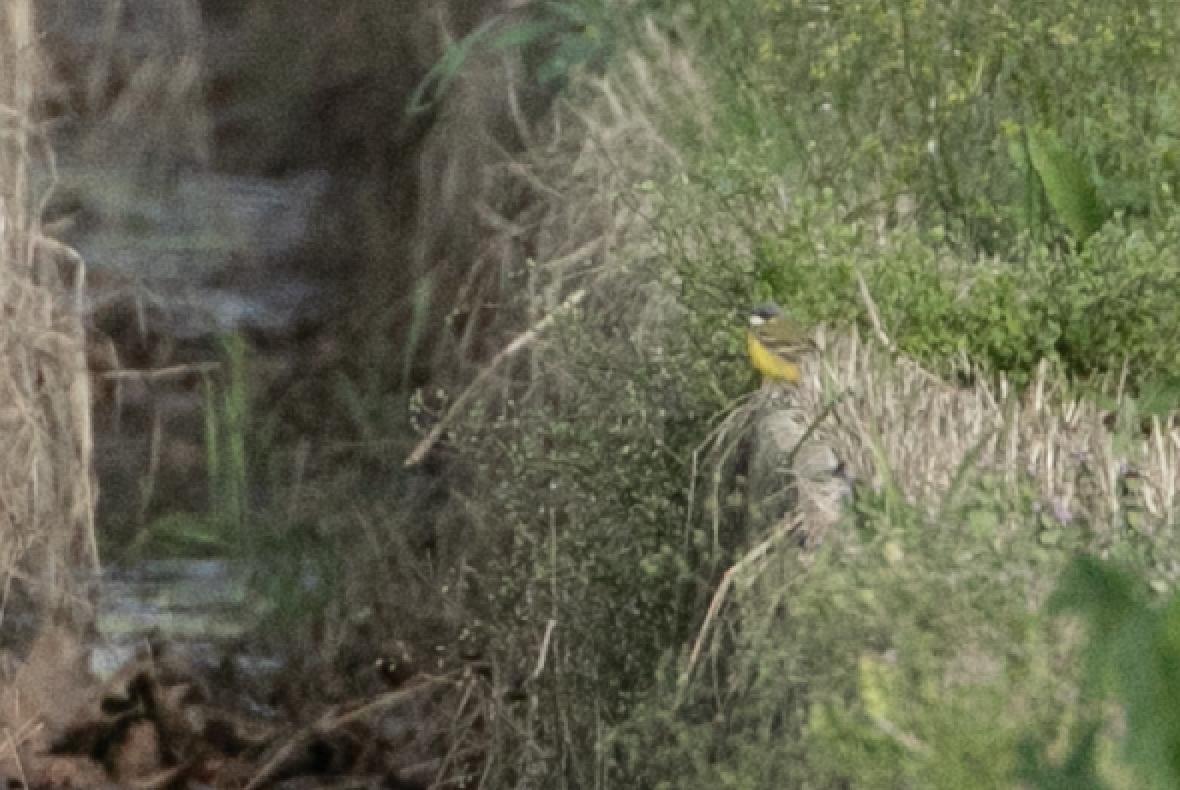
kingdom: Animalia
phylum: Chordata
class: Aves
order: Passeriformes
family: Motacillidae
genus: Motacilla
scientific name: Motacilla flava
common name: Western yellow wagtail
